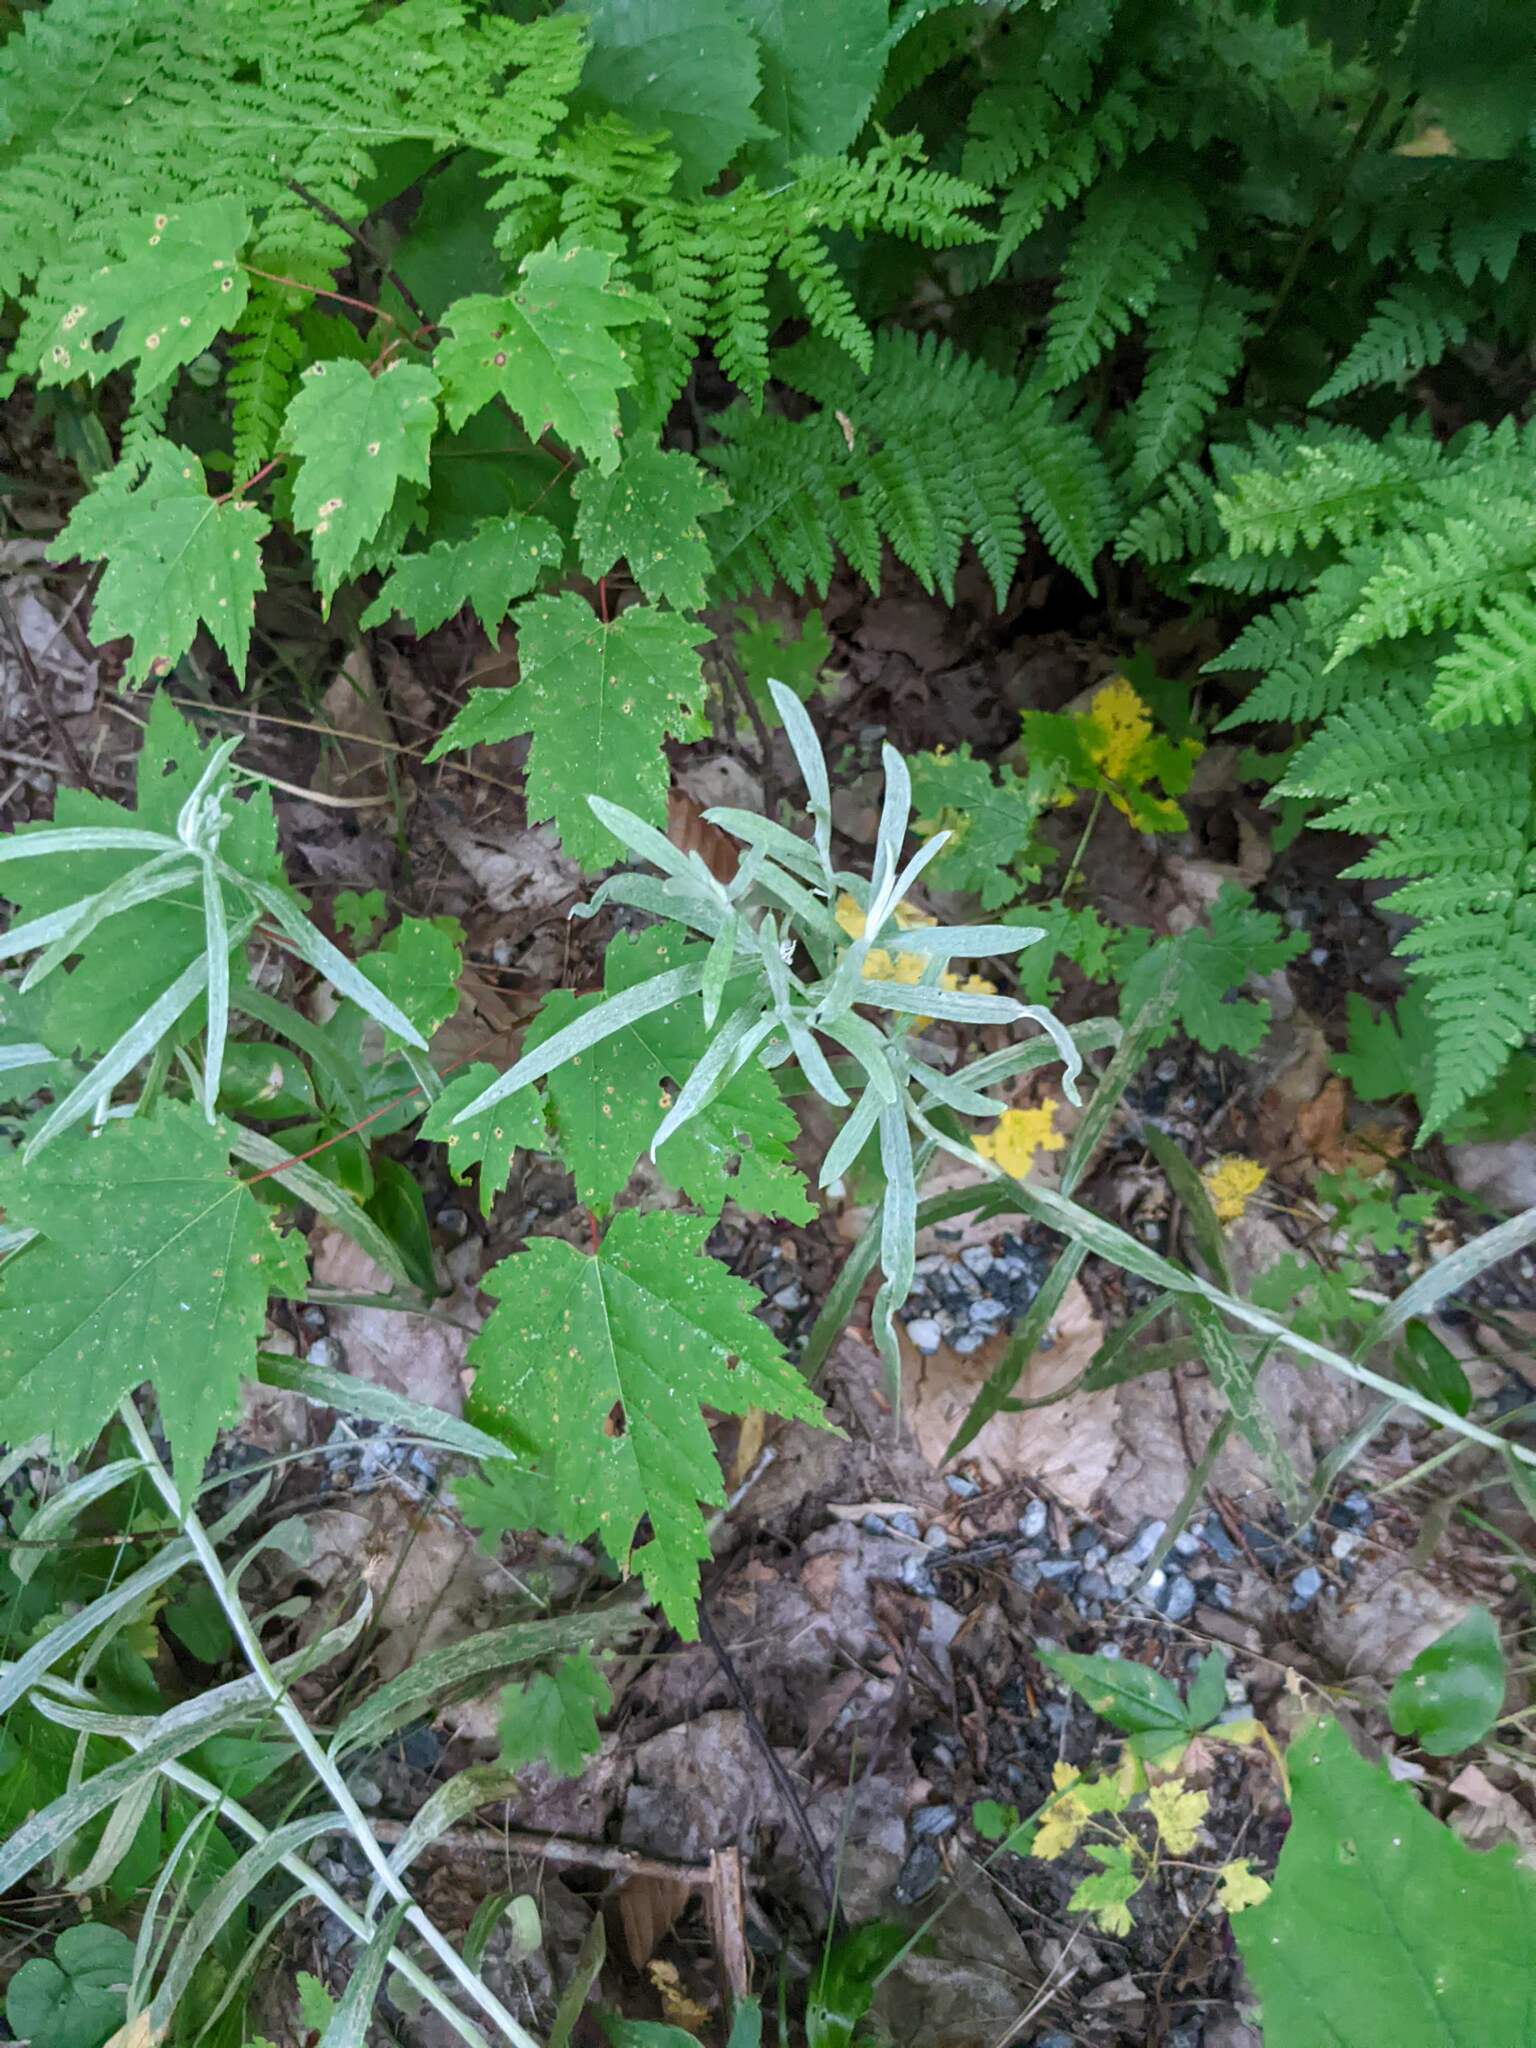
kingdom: Plantae
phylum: Tracheophyta
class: Magnoliopsida
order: Sapindales
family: Sapindaceae
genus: Acer
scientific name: Acer rubrum
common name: Red maple
